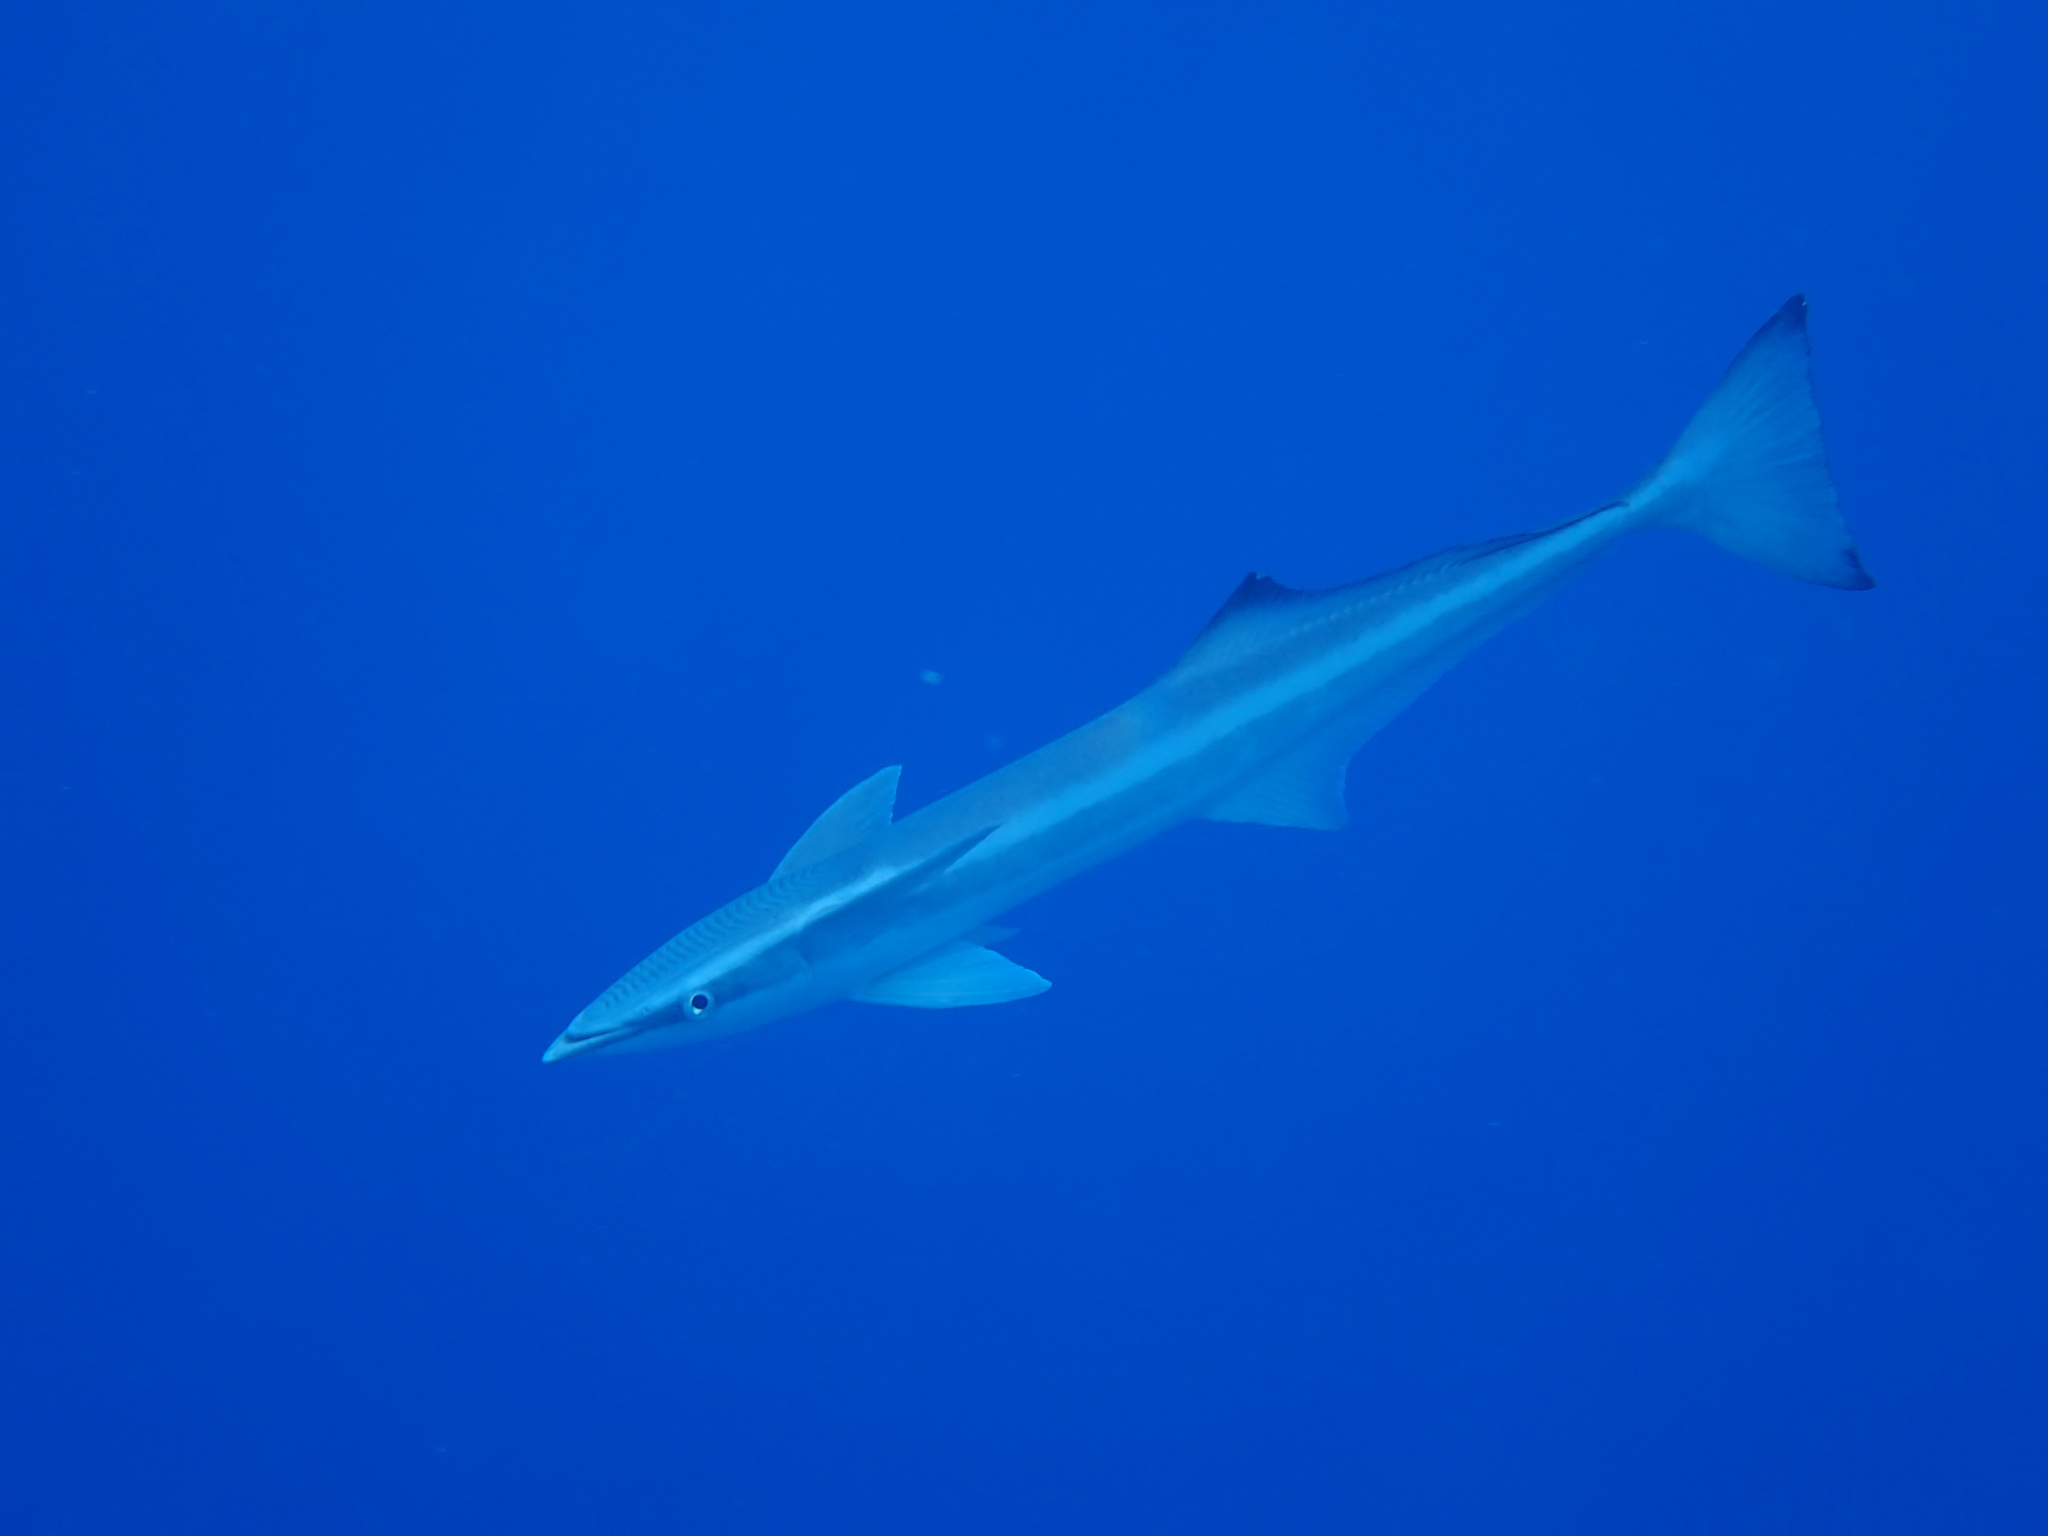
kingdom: Animalia
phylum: Chordata
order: Perciformes
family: Echeneidae
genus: Echeneis
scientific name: Echeneis naucrates
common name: Sharksucker
